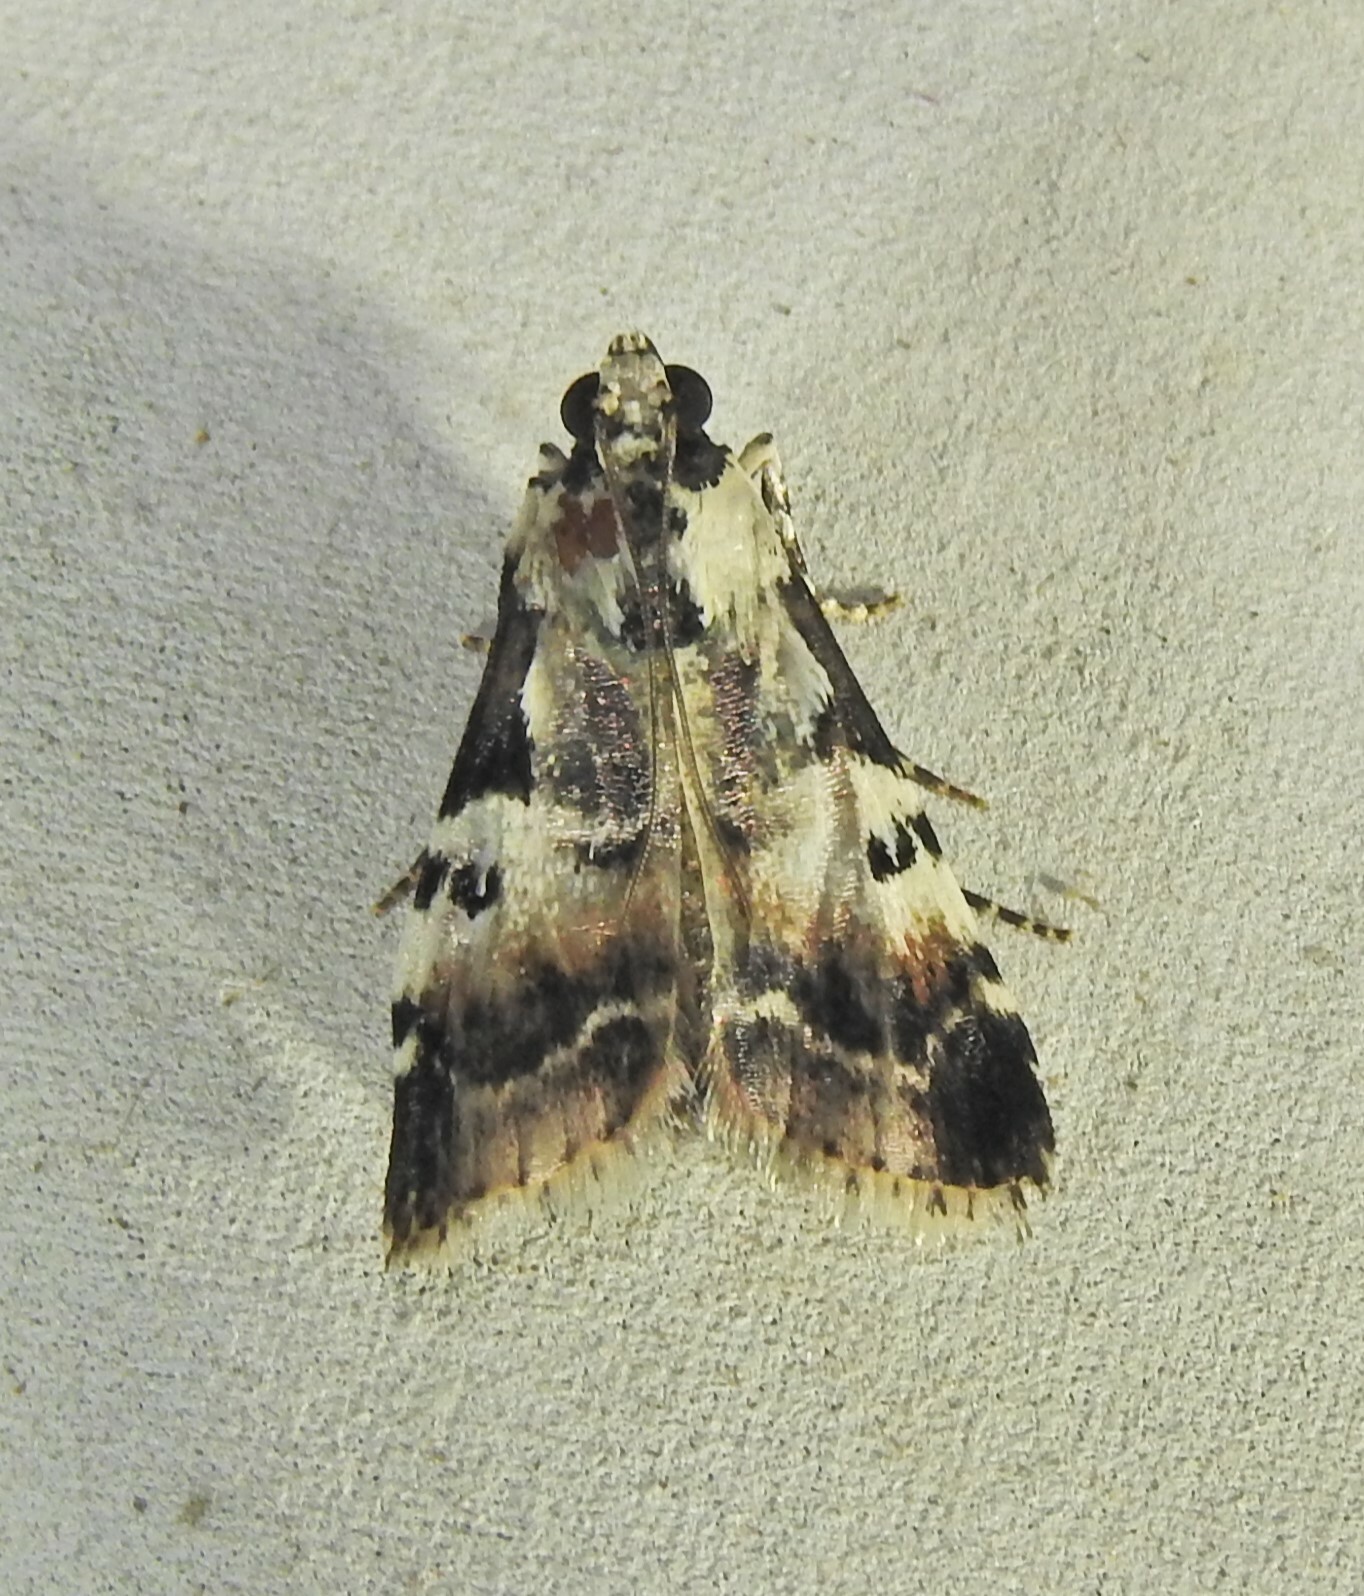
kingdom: Animalia
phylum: Arthropoda
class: Insecta
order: Lepidoptera
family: Pyralidae
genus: Orthaga
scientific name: Orthaga seminivea
